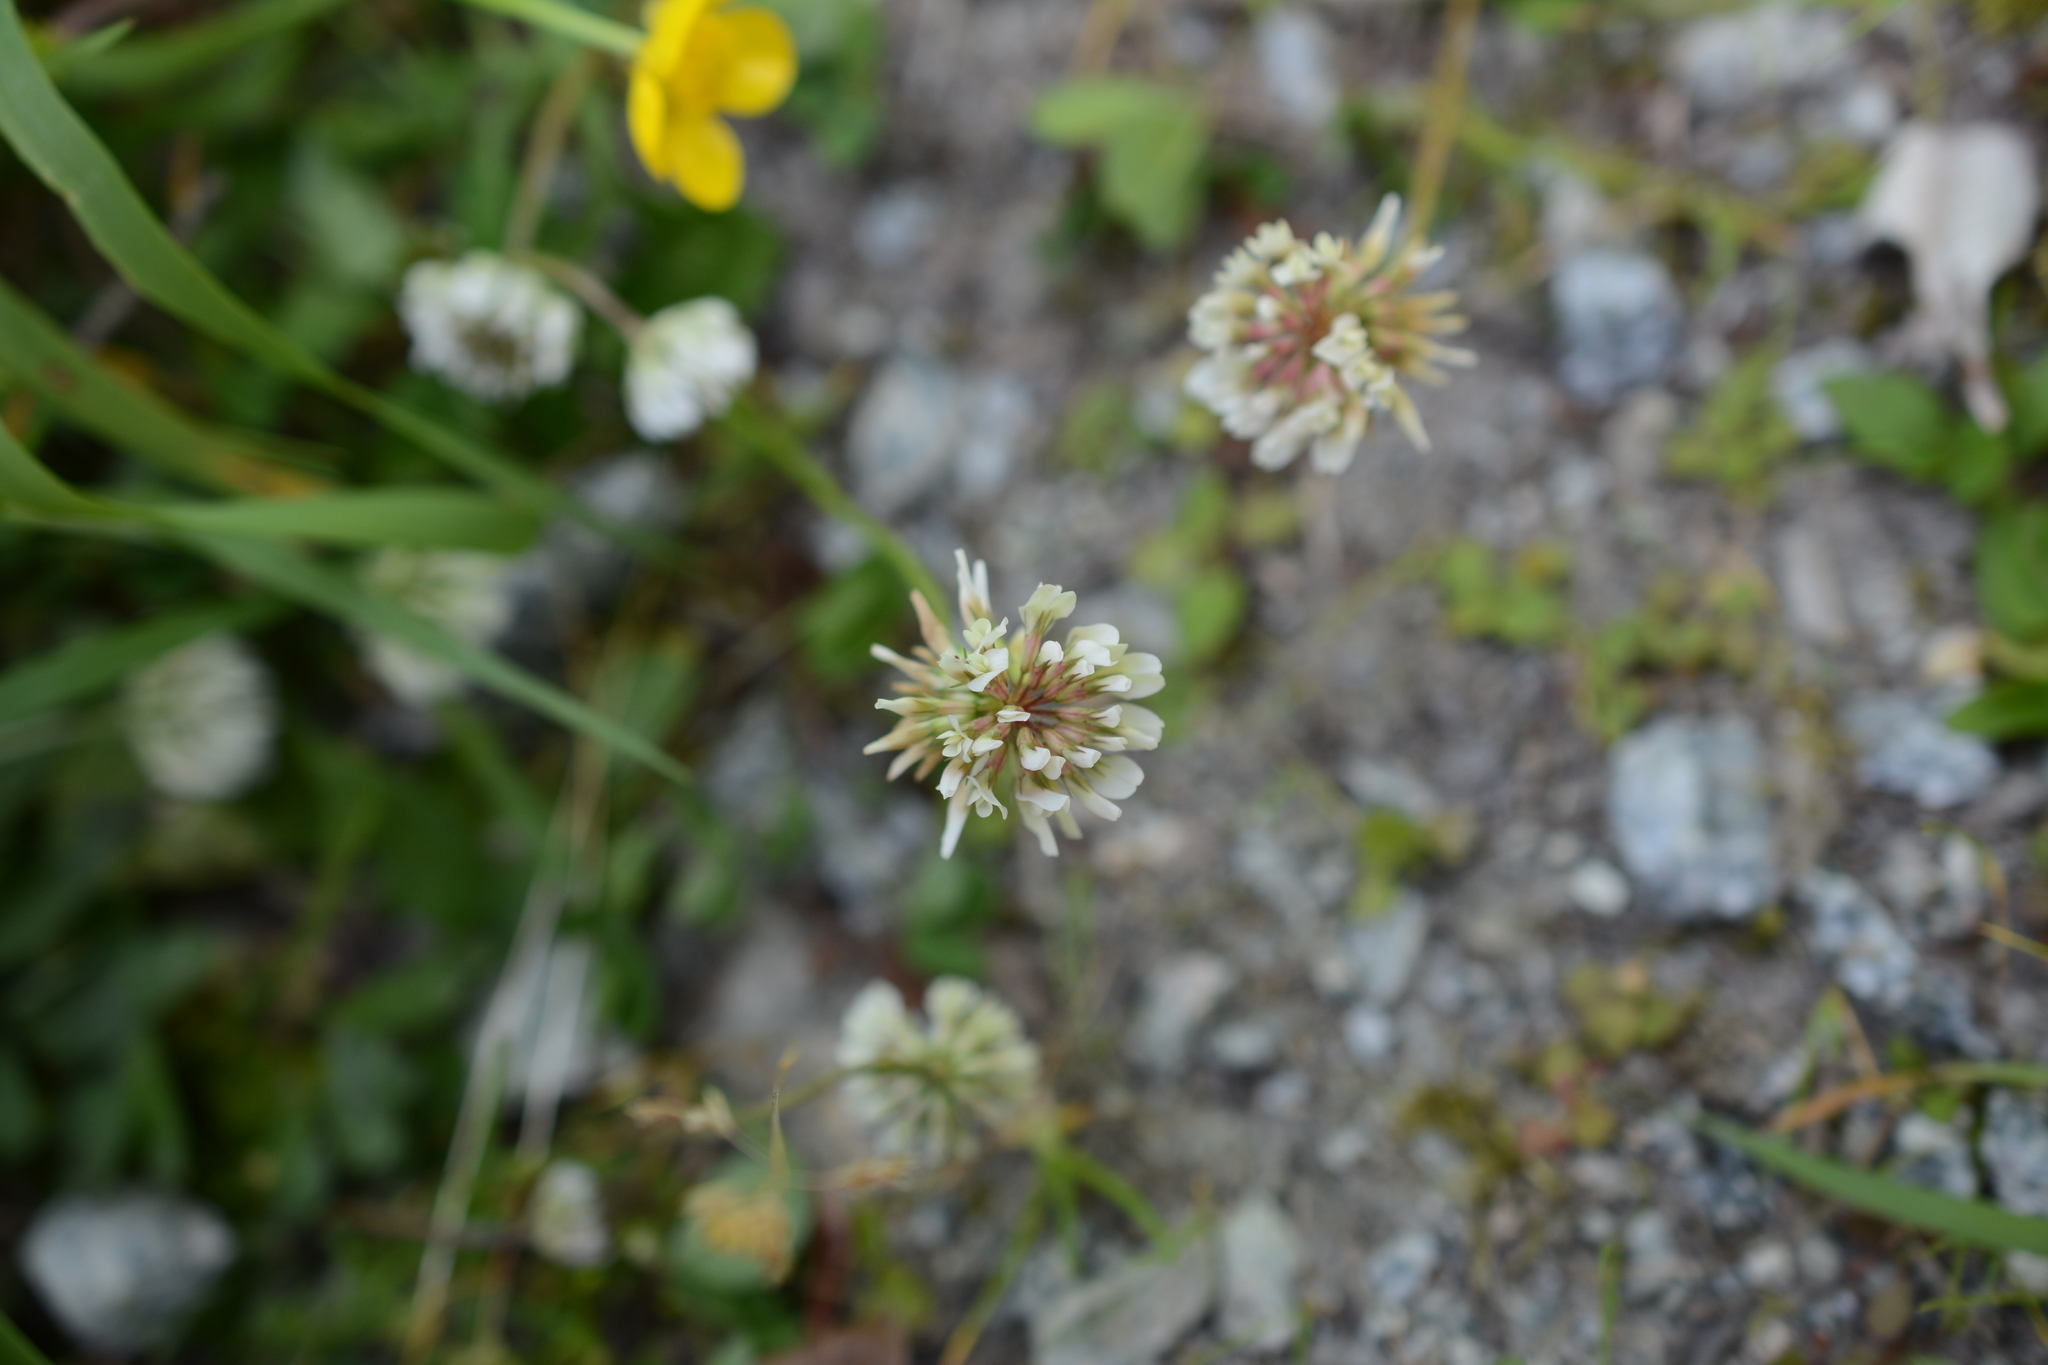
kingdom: Plantae
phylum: Tracheophyta
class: Magnoliopsida
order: Fabales
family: Fabaceae
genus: Trifolium
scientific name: Trifolium repens
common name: White clover
